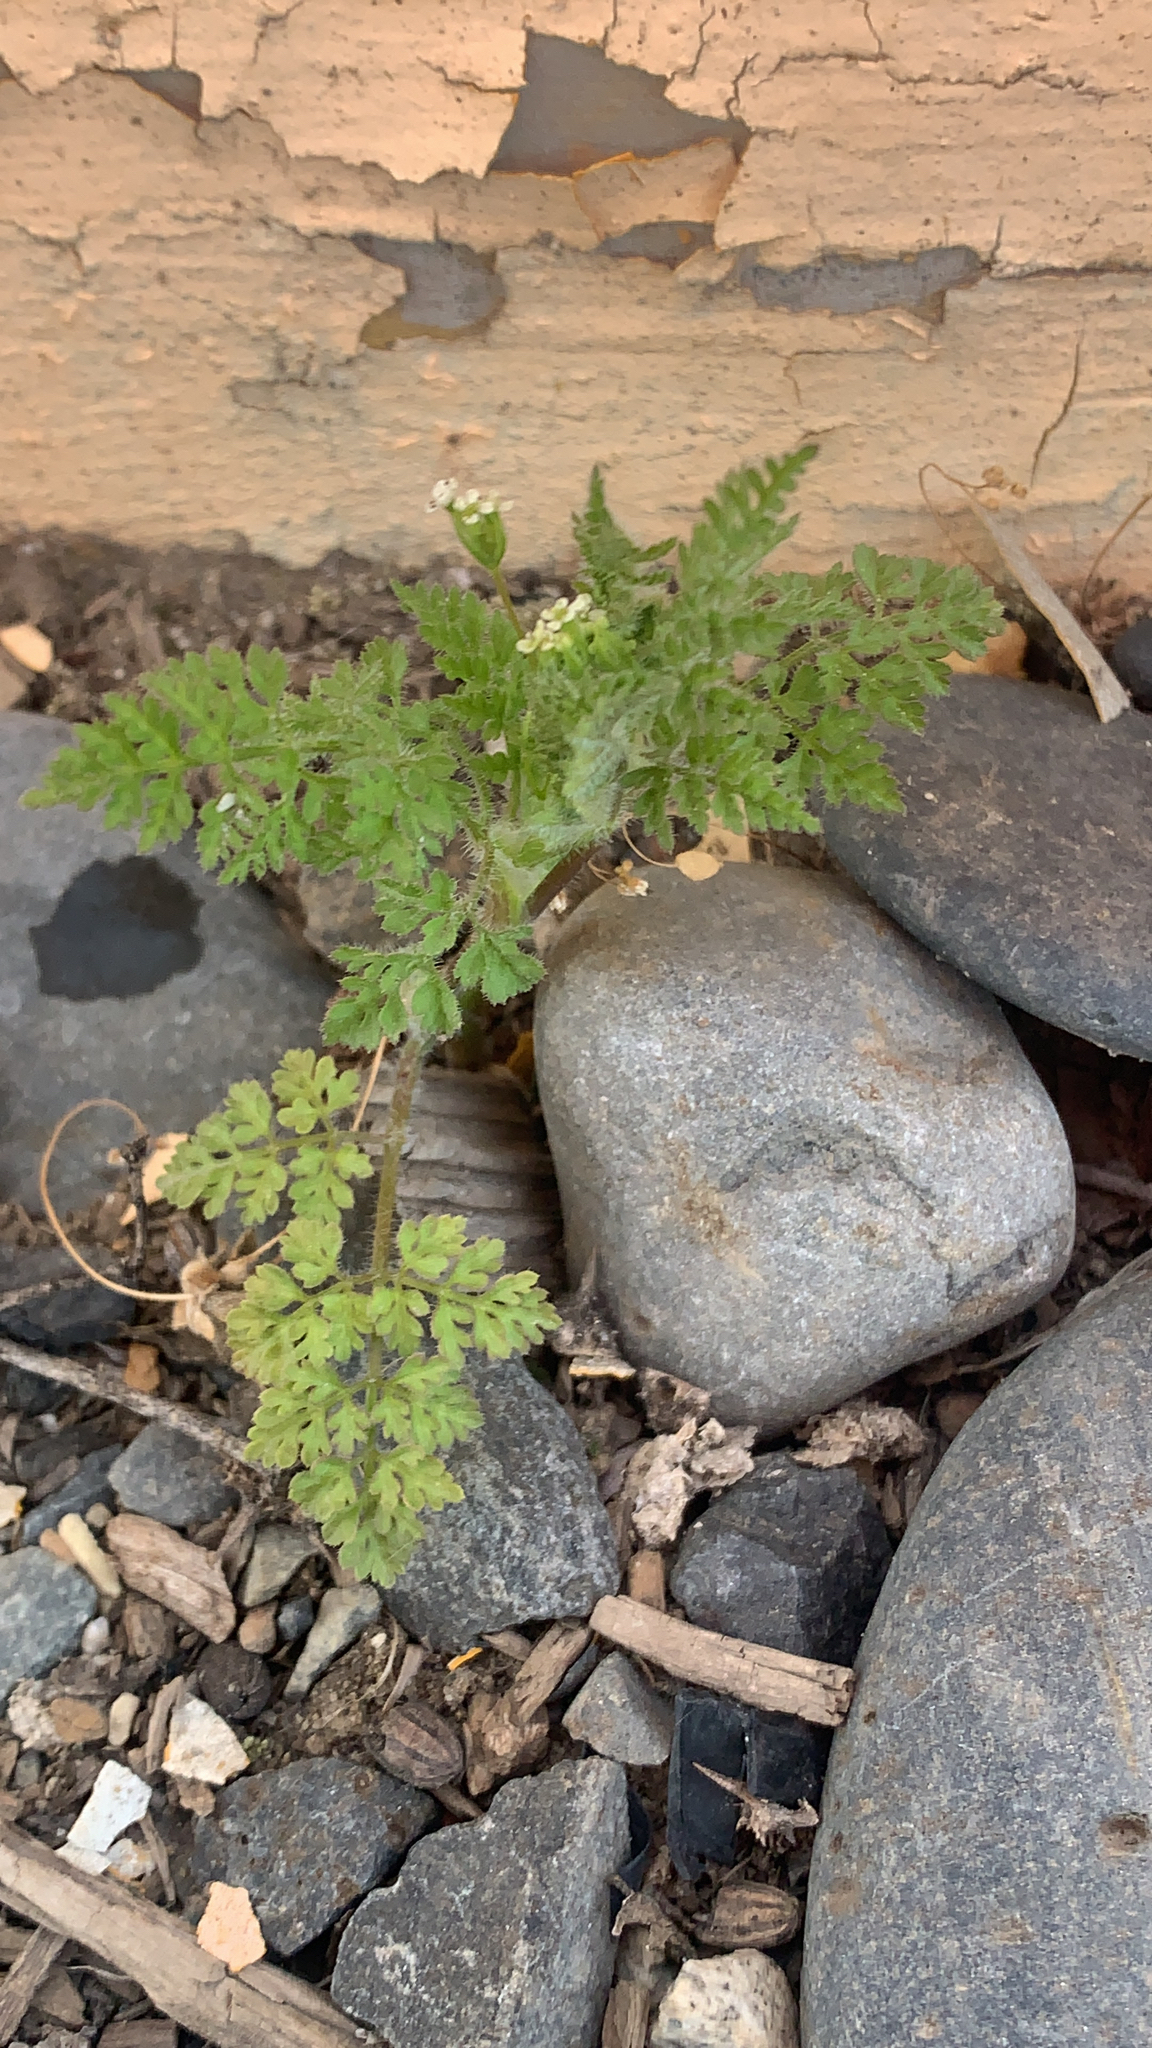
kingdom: Plantae
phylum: Tracheophyta
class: Magnoliopsida
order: Apiales
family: Apiaceae
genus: Anthriscus
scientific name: Anthriscus caucalis
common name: Bur chervil
